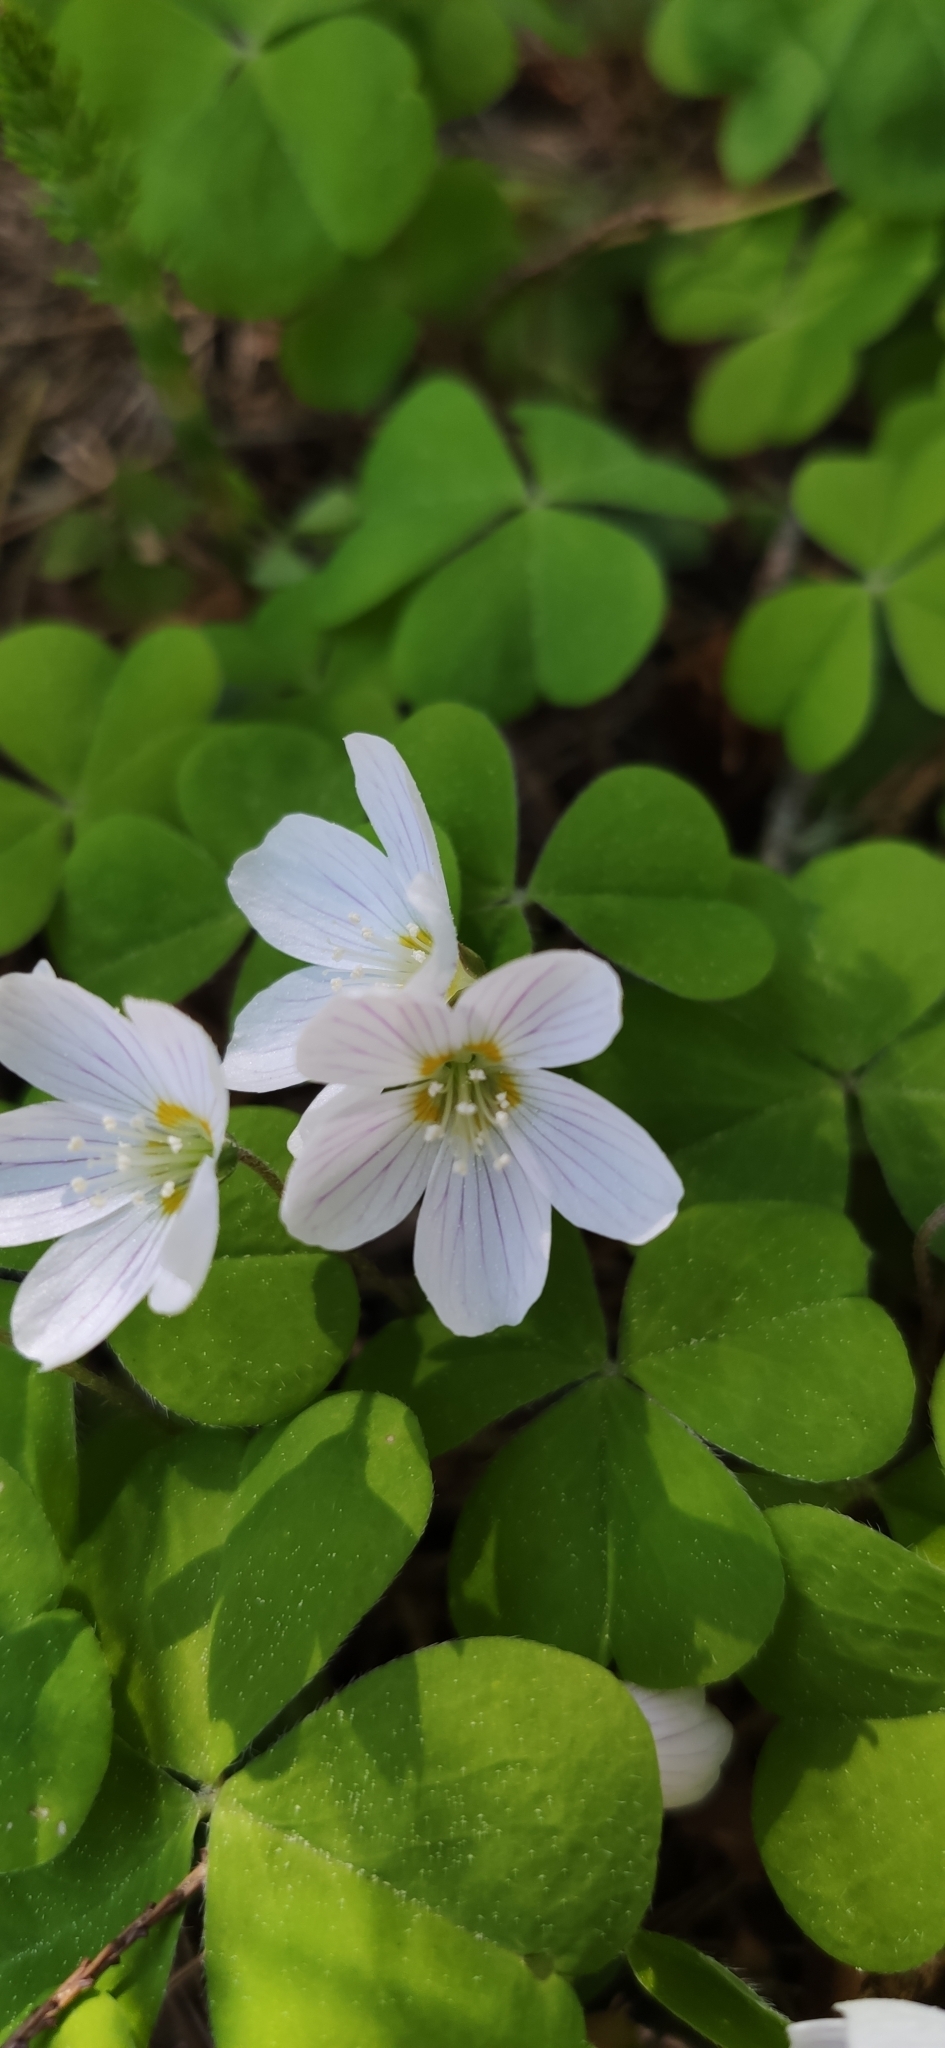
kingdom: Plantae
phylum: Tracheophyta
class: Magnoliopsida
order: Oxalidales
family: Oxalidaceae
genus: Oxalis
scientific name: Oxalis acetosella
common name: Wood-sorrel
